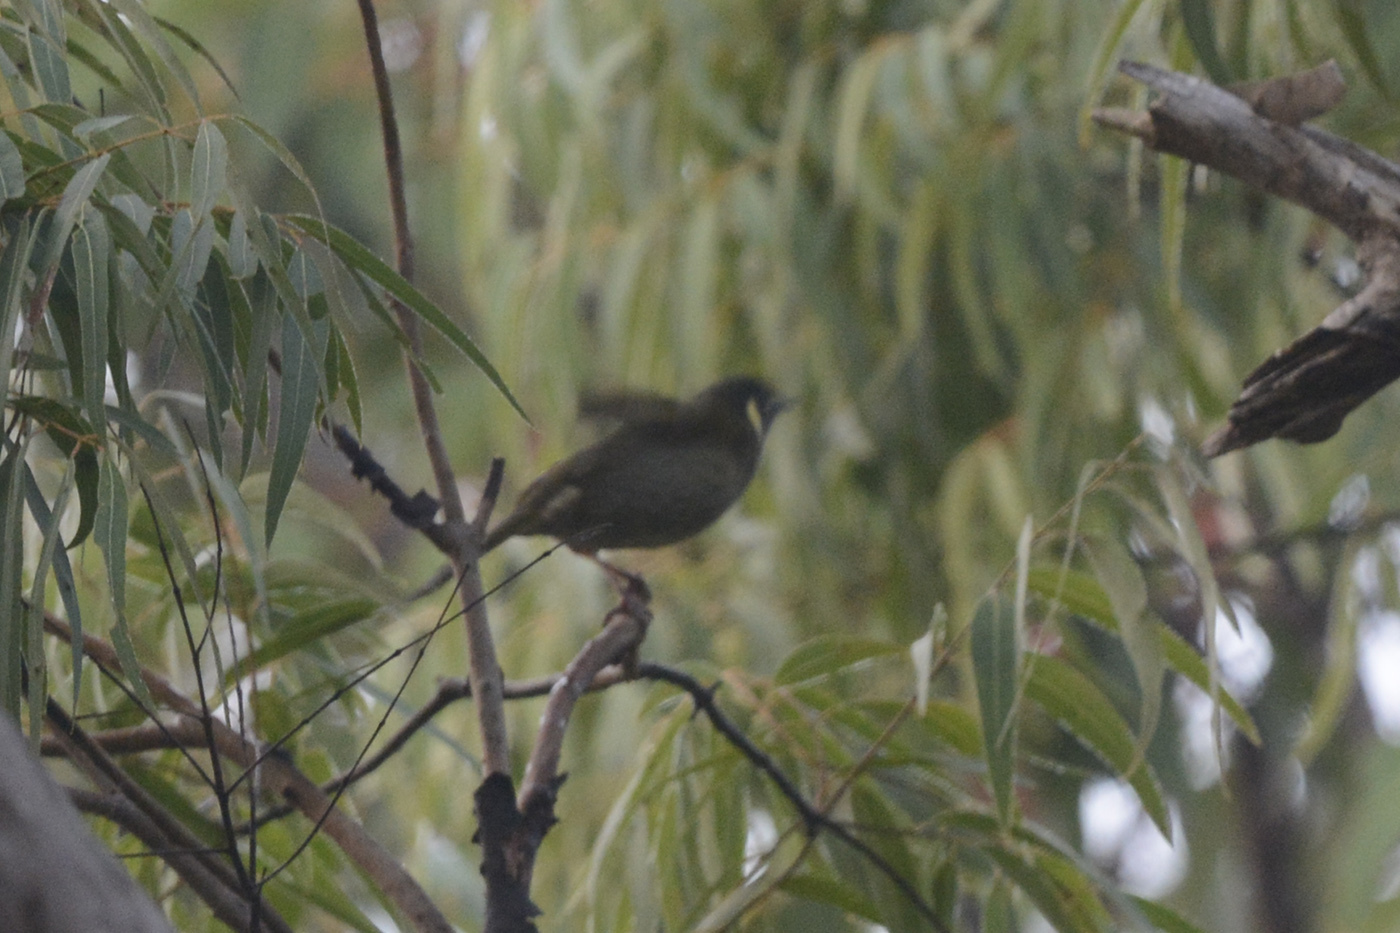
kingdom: Animalia
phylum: Chordata
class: Aves
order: Passeriformes
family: Meliphagidae
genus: Meliphaga
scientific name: Meliphaga lewinii
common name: Lewin's honeyeater
